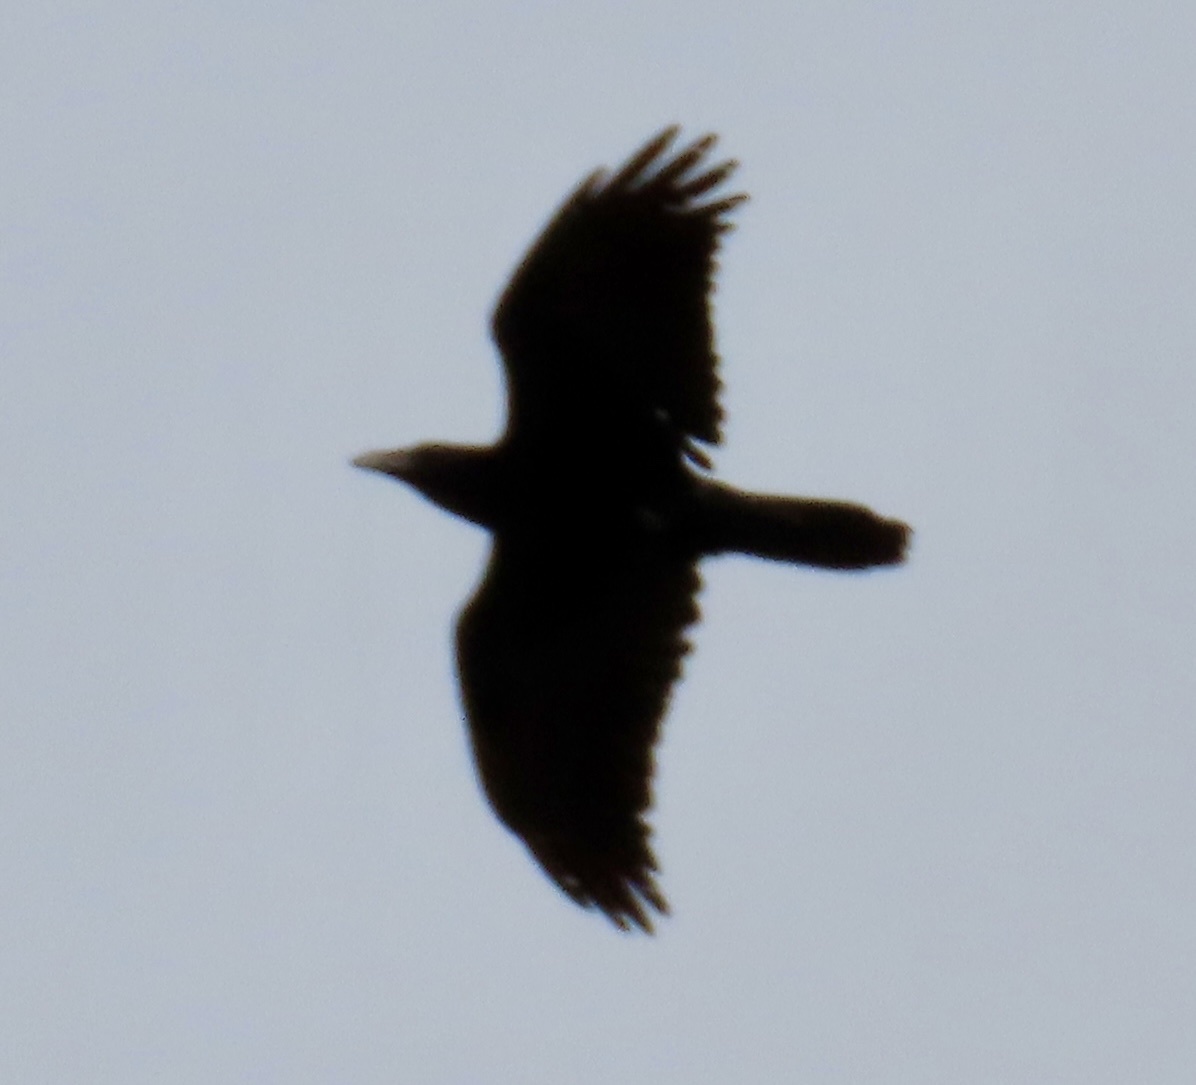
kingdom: Animalia
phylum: Chordata
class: Aves
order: Passeriformes
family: Corvidae
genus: Corvus
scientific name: Corvus corax
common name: Common raven
